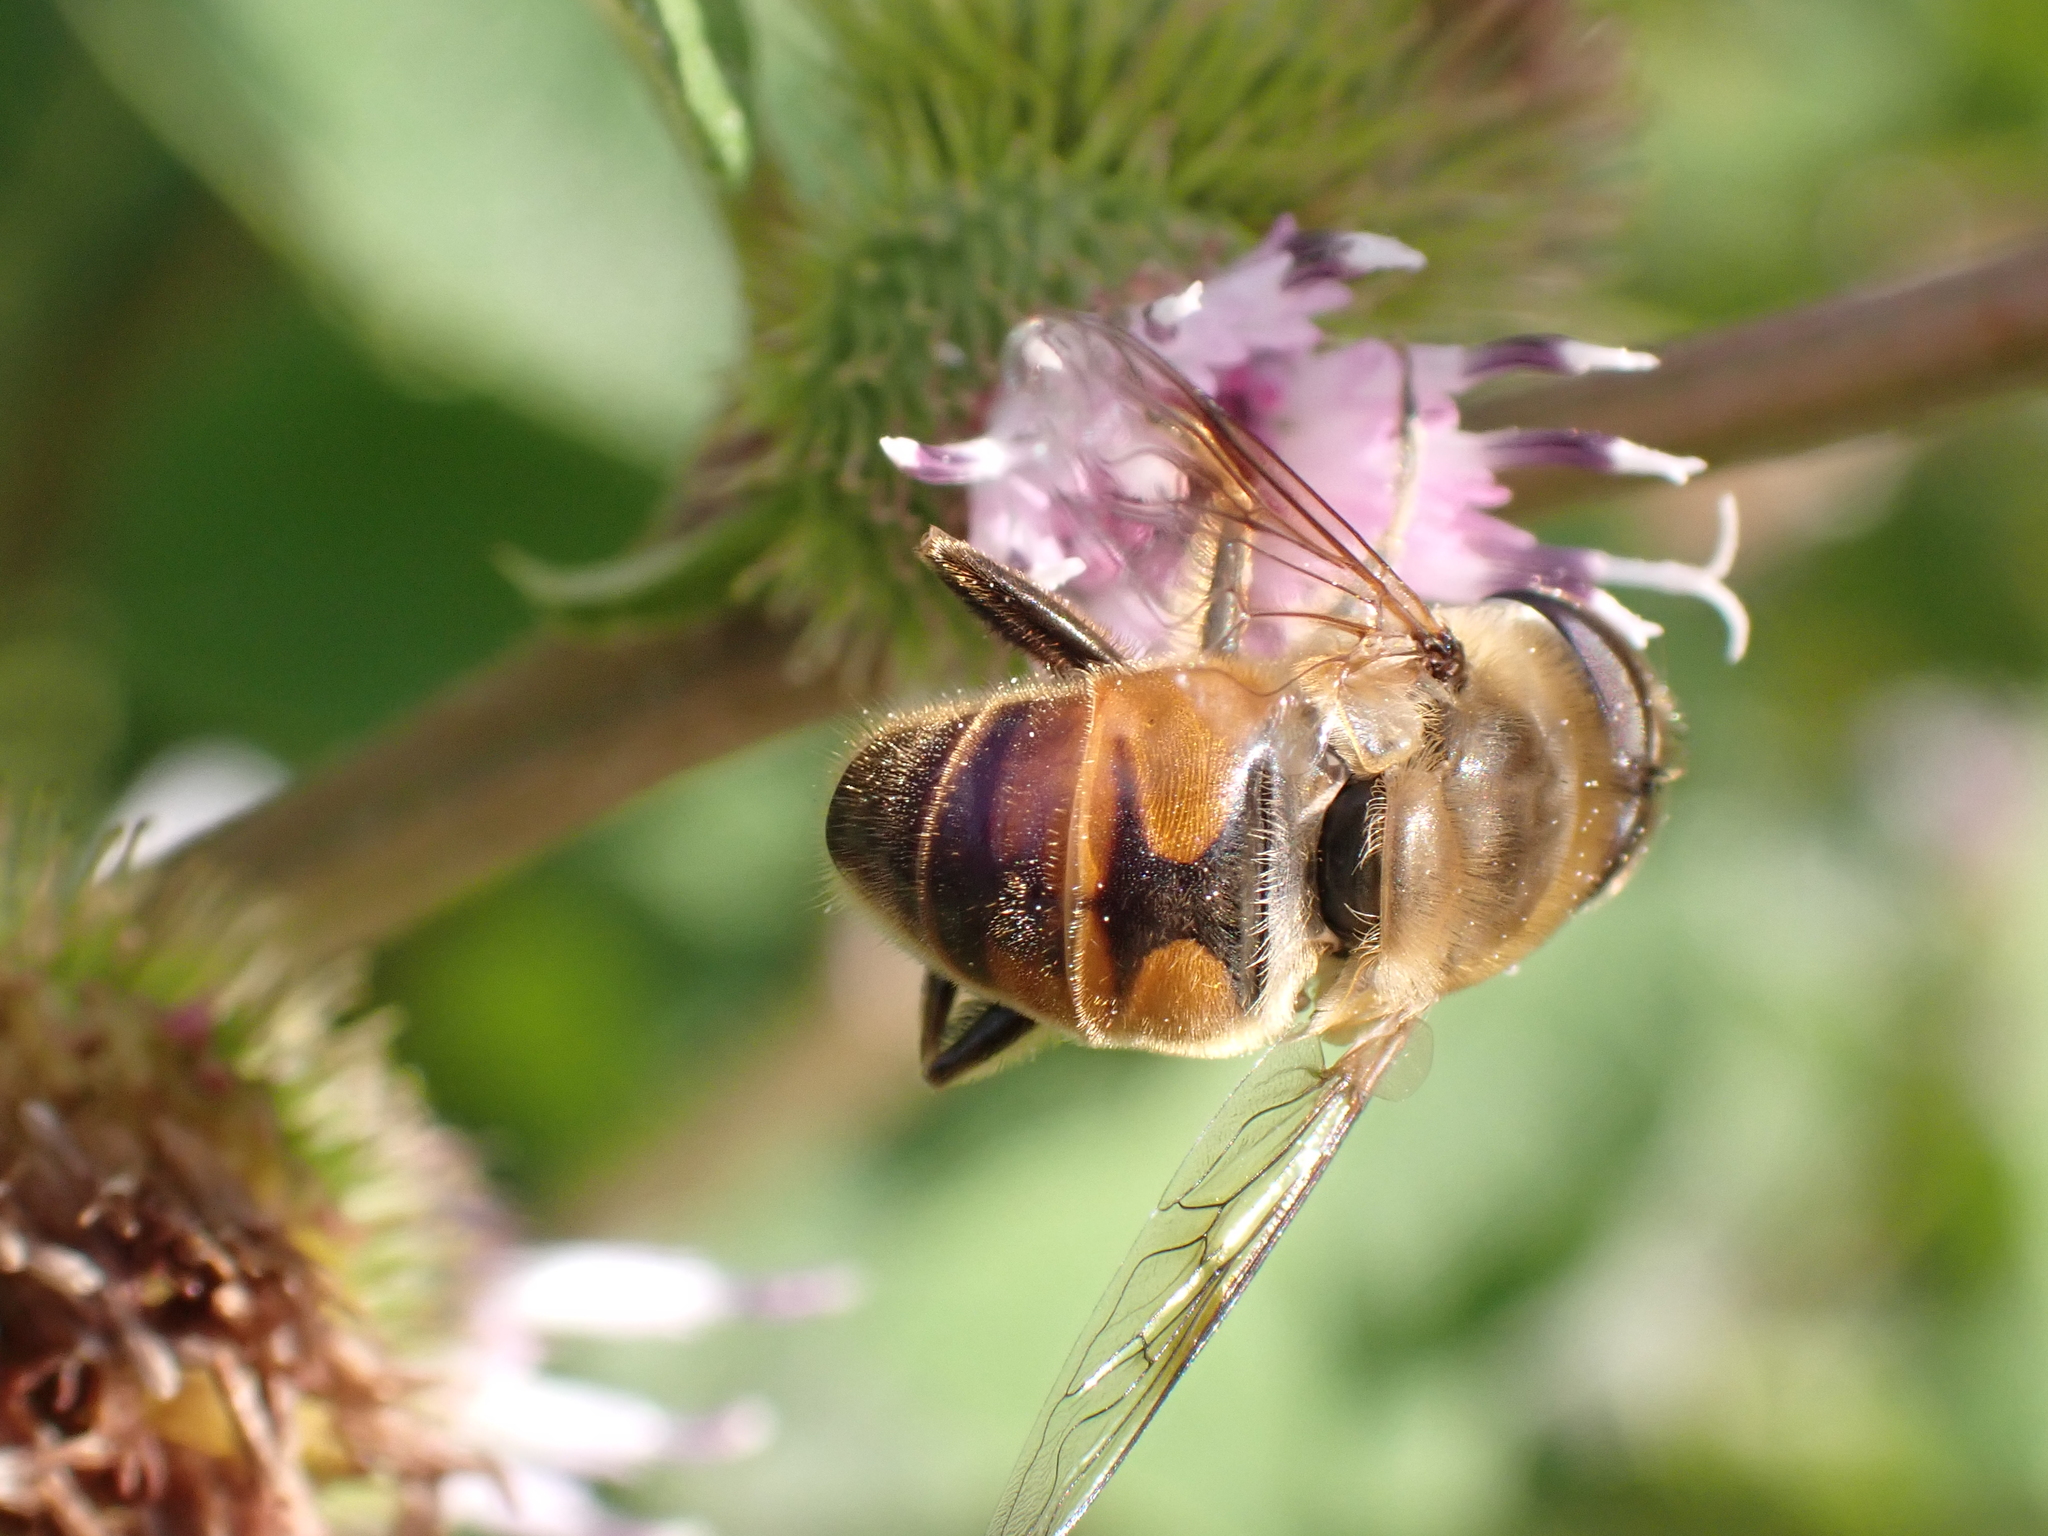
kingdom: Animalia
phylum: Arthropoda
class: Insecta
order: Diptera
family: Syrphidae
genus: Eristalis
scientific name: Eristalis tenax
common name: Drone fly
